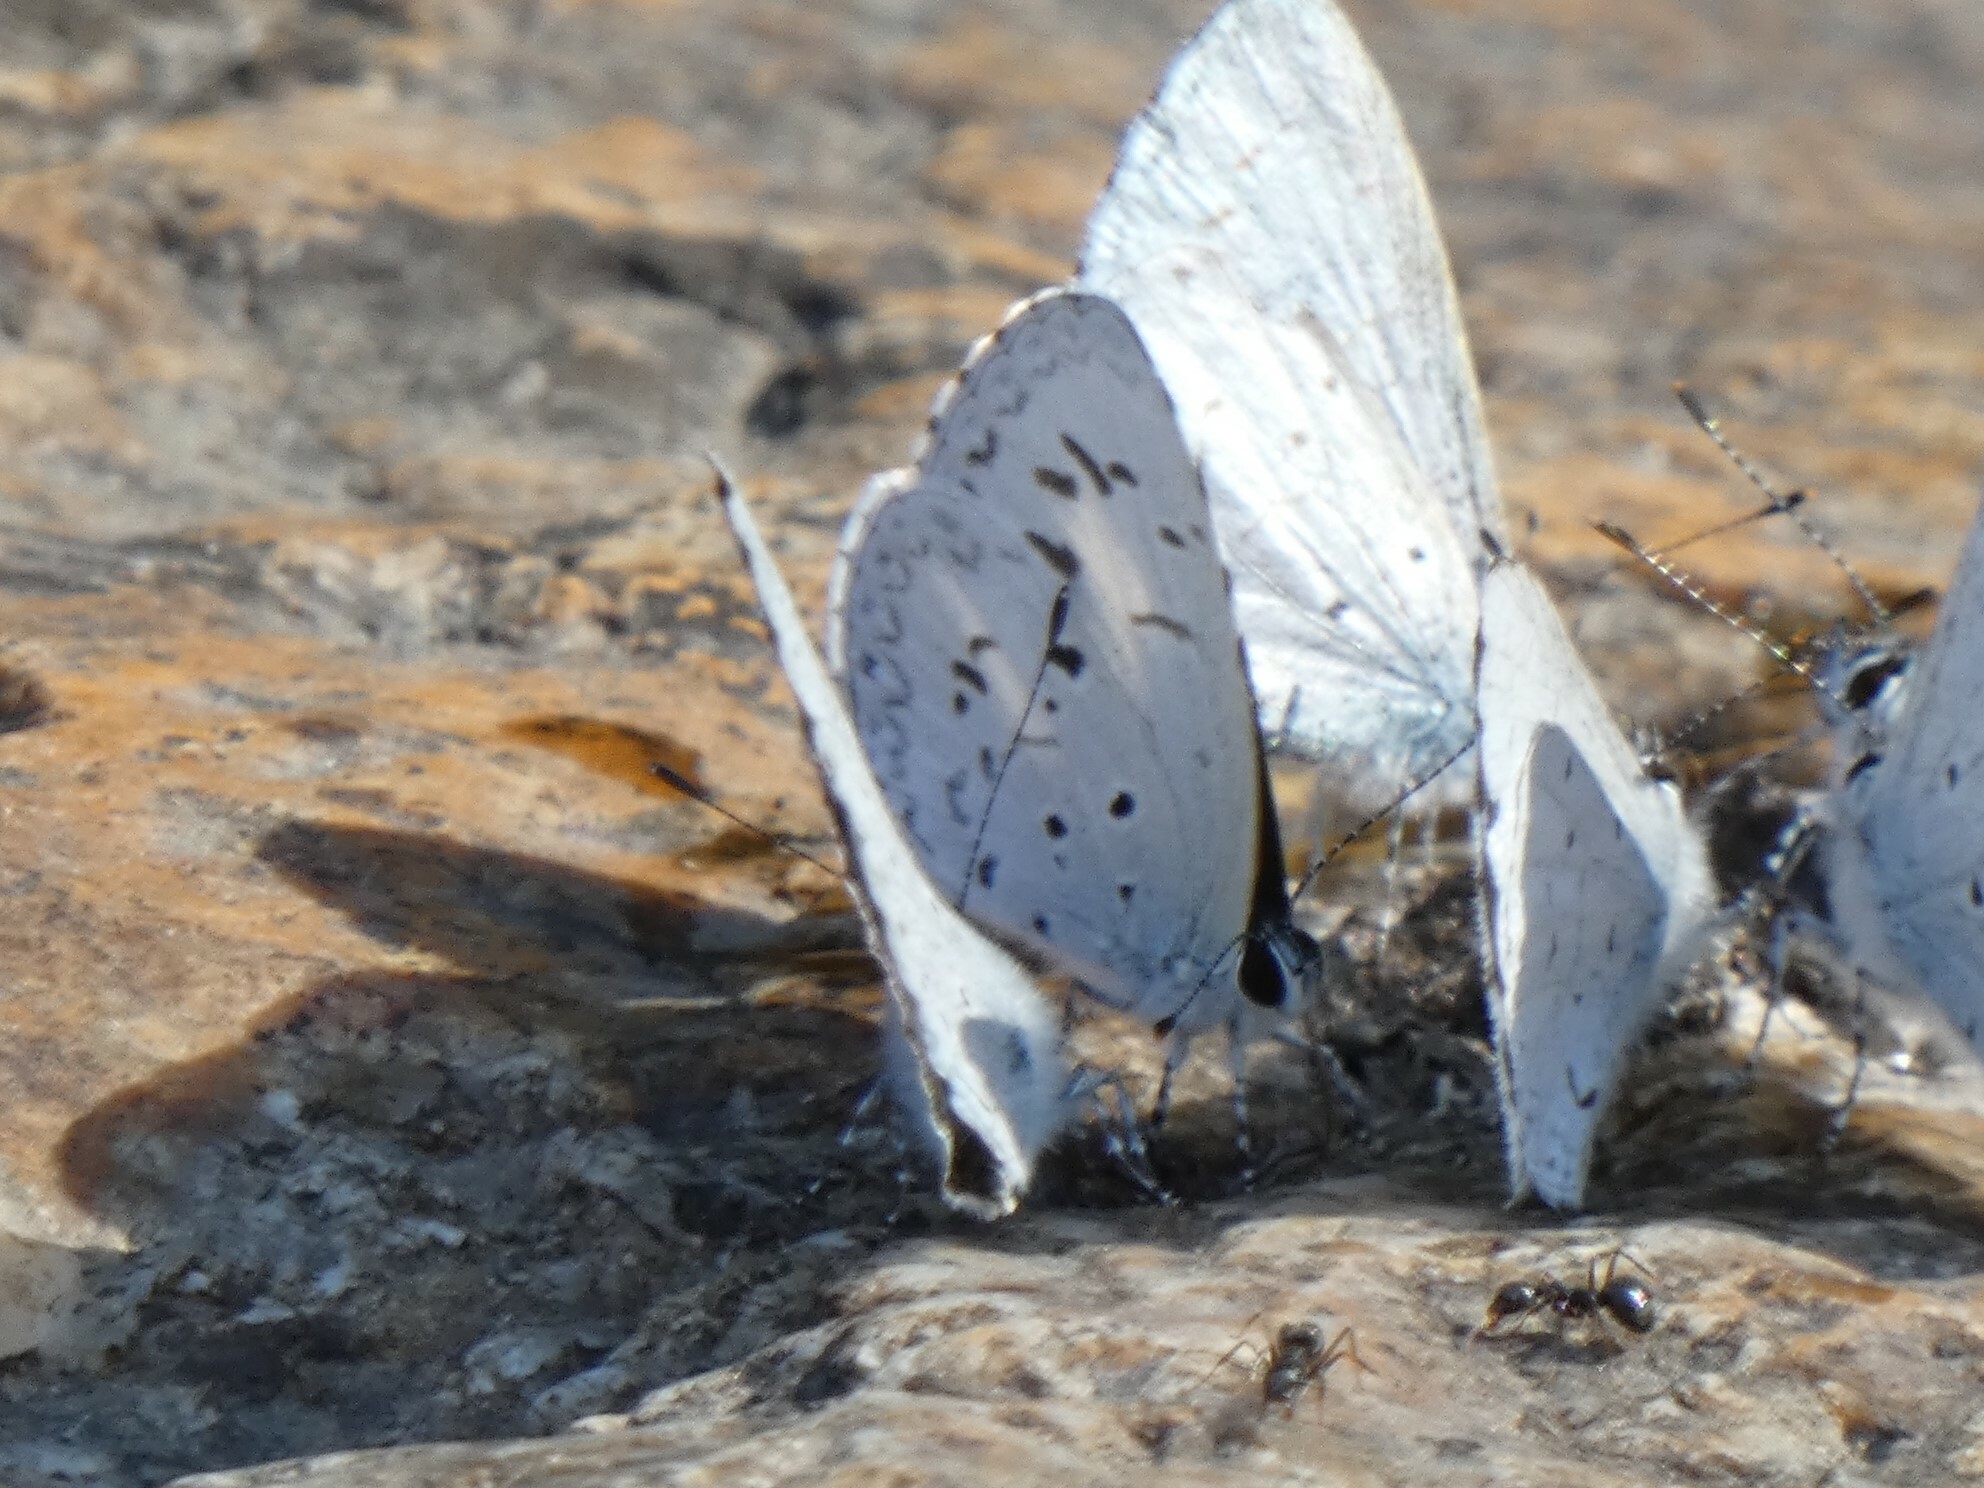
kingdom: Animalia
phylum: Arthropoda
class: Insecta
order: Lepidoptera
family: Lycaenidae
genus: Acytolepis
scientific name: Acytolepis puspa
